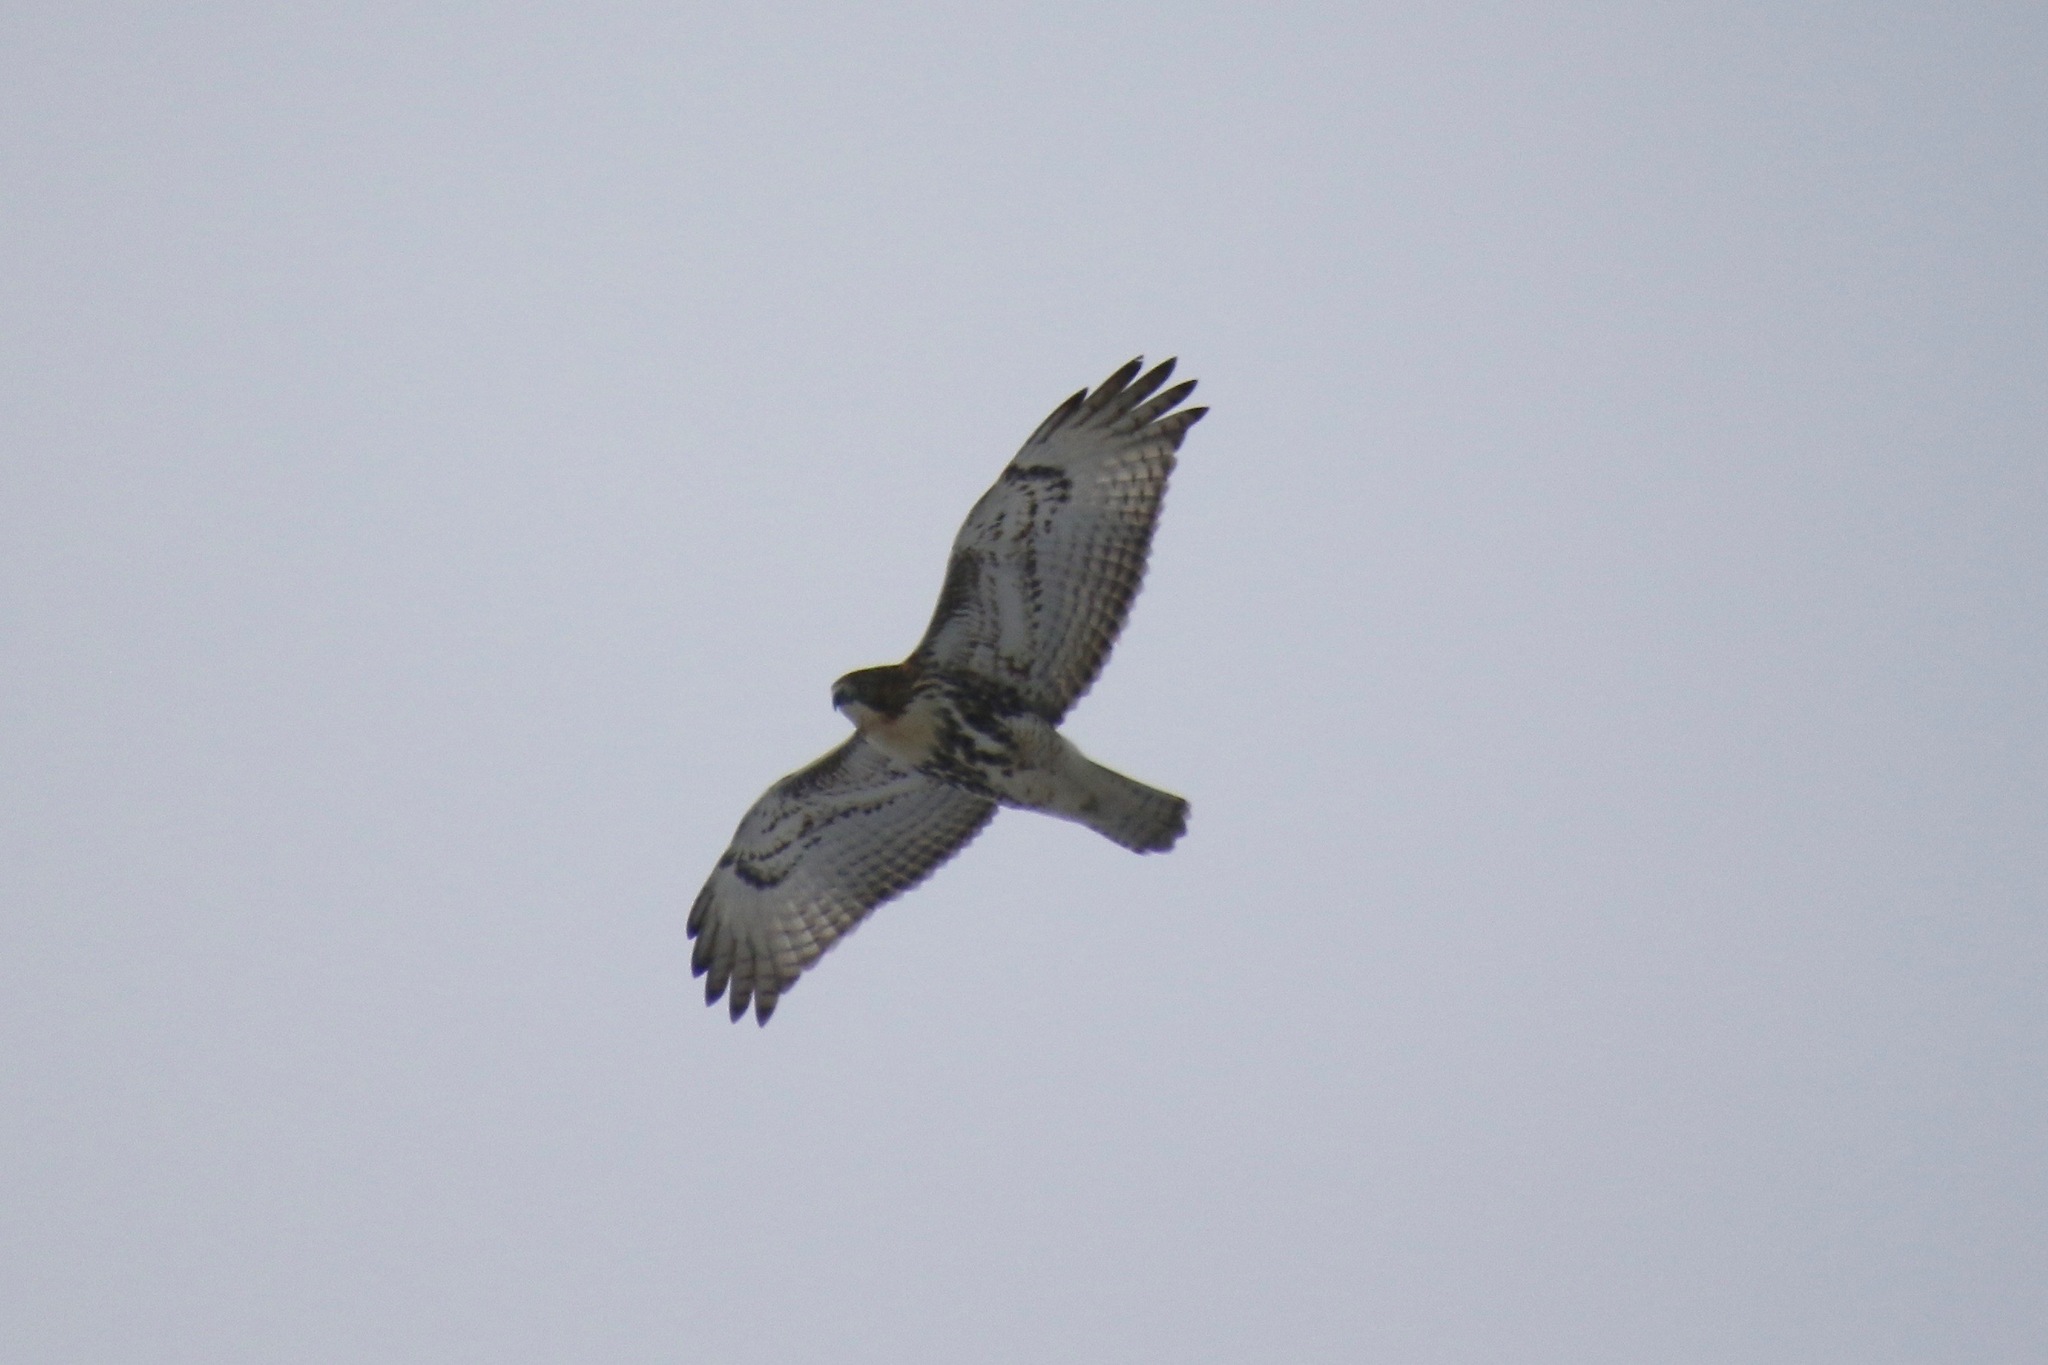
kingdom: Animalia
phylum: Chordata
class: Aves
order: Accipitriformes
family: Accipitridae
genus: Buteo
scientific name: Buteo jamaicensis
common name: Red-tailed hawk
